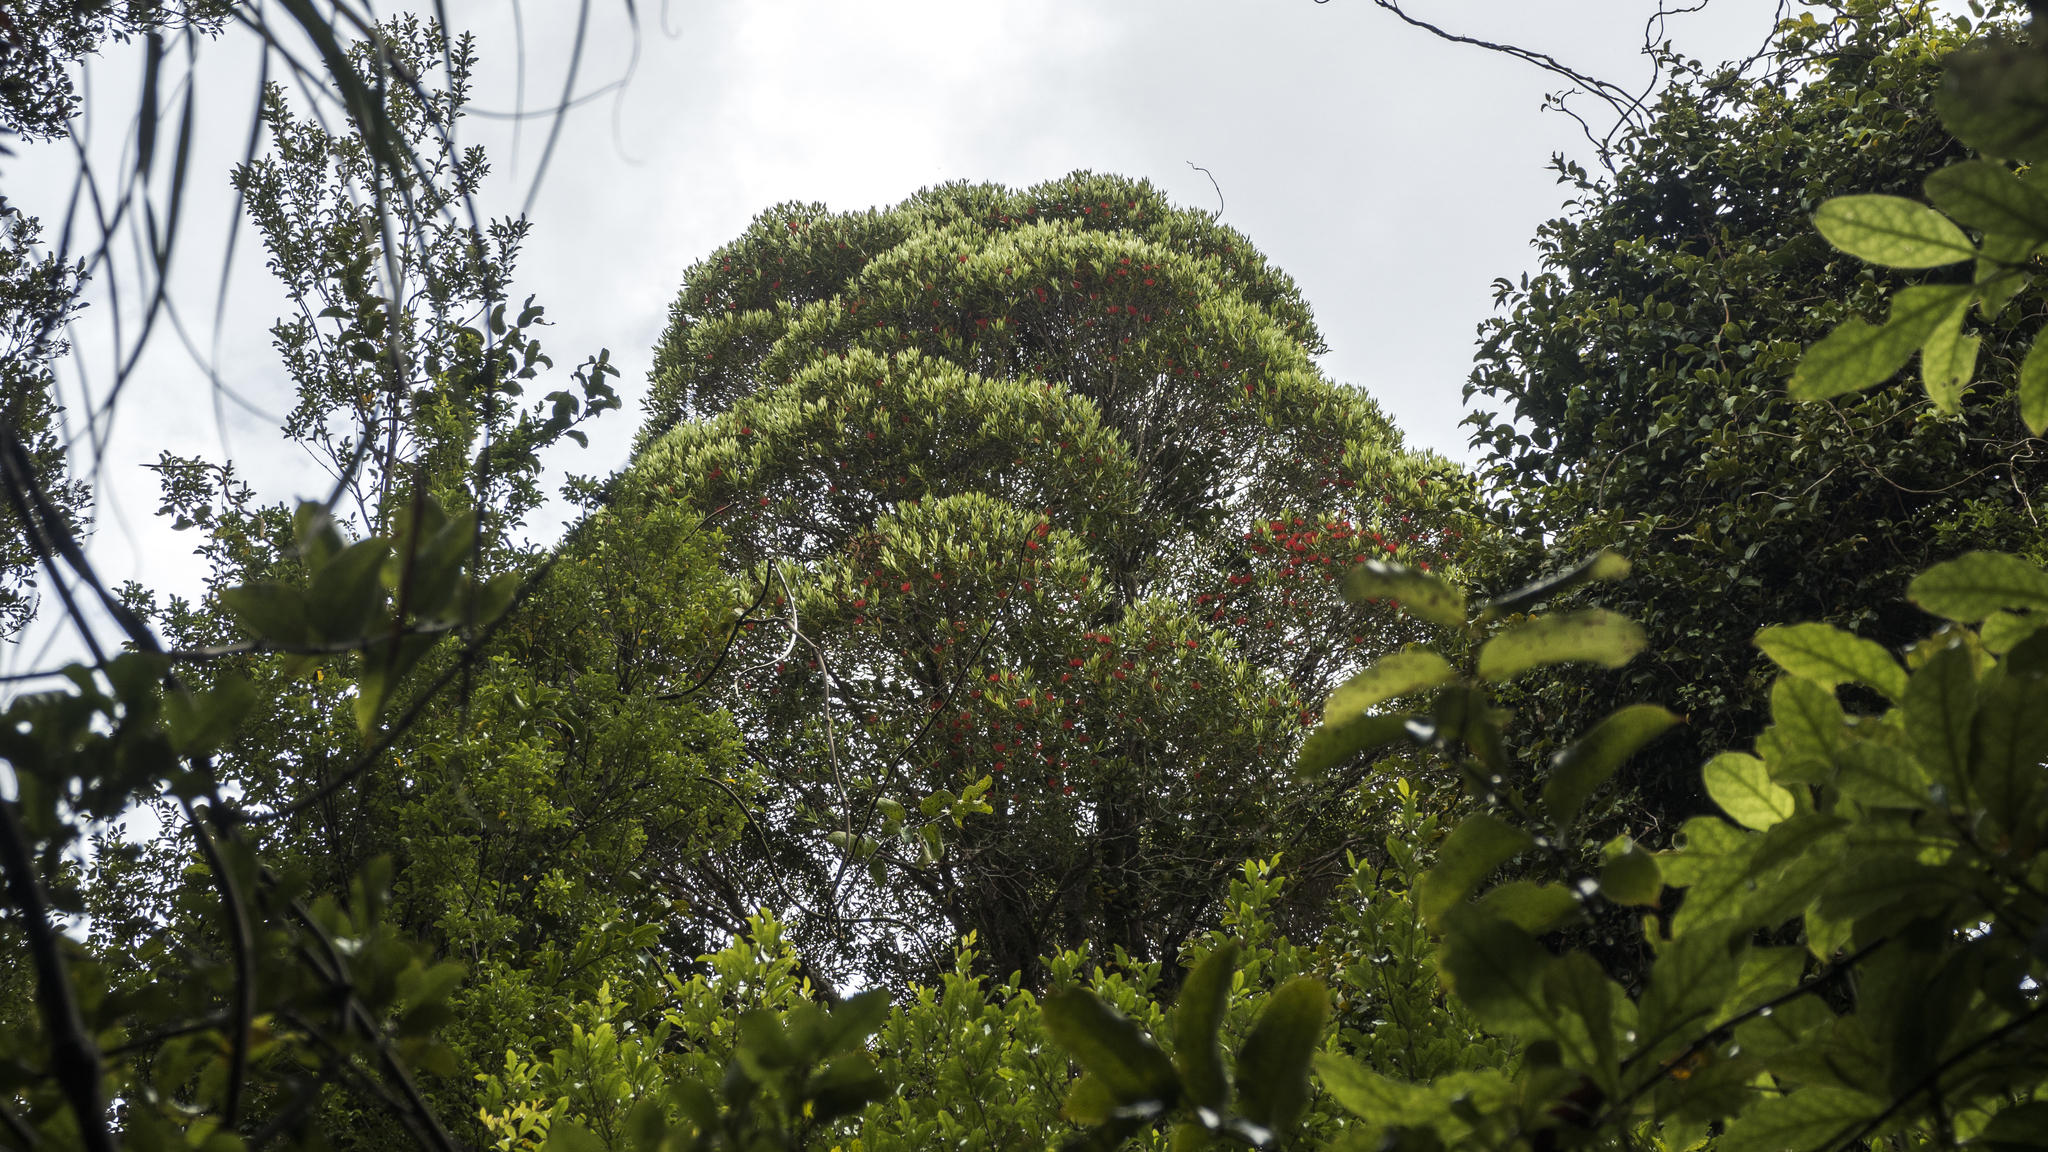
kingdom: Plantae
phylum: Tracheophyta
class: Magnoliopsida
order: Myrtales
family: Myrtaceae
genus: Metrosideros
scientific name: Metrosideros umbellata
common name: Southern rata
